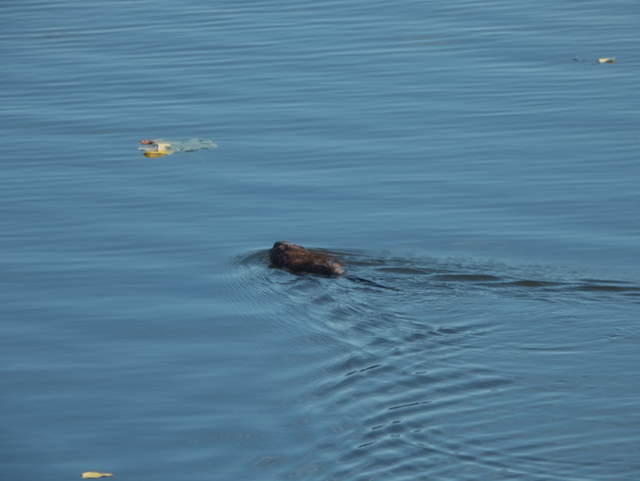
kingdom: Animalia
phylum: Chordata
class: Mammalia
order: Rodentia
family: Cricetidae
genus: Ondatra
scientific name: Ondatra zibethicus
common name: Muskrat
